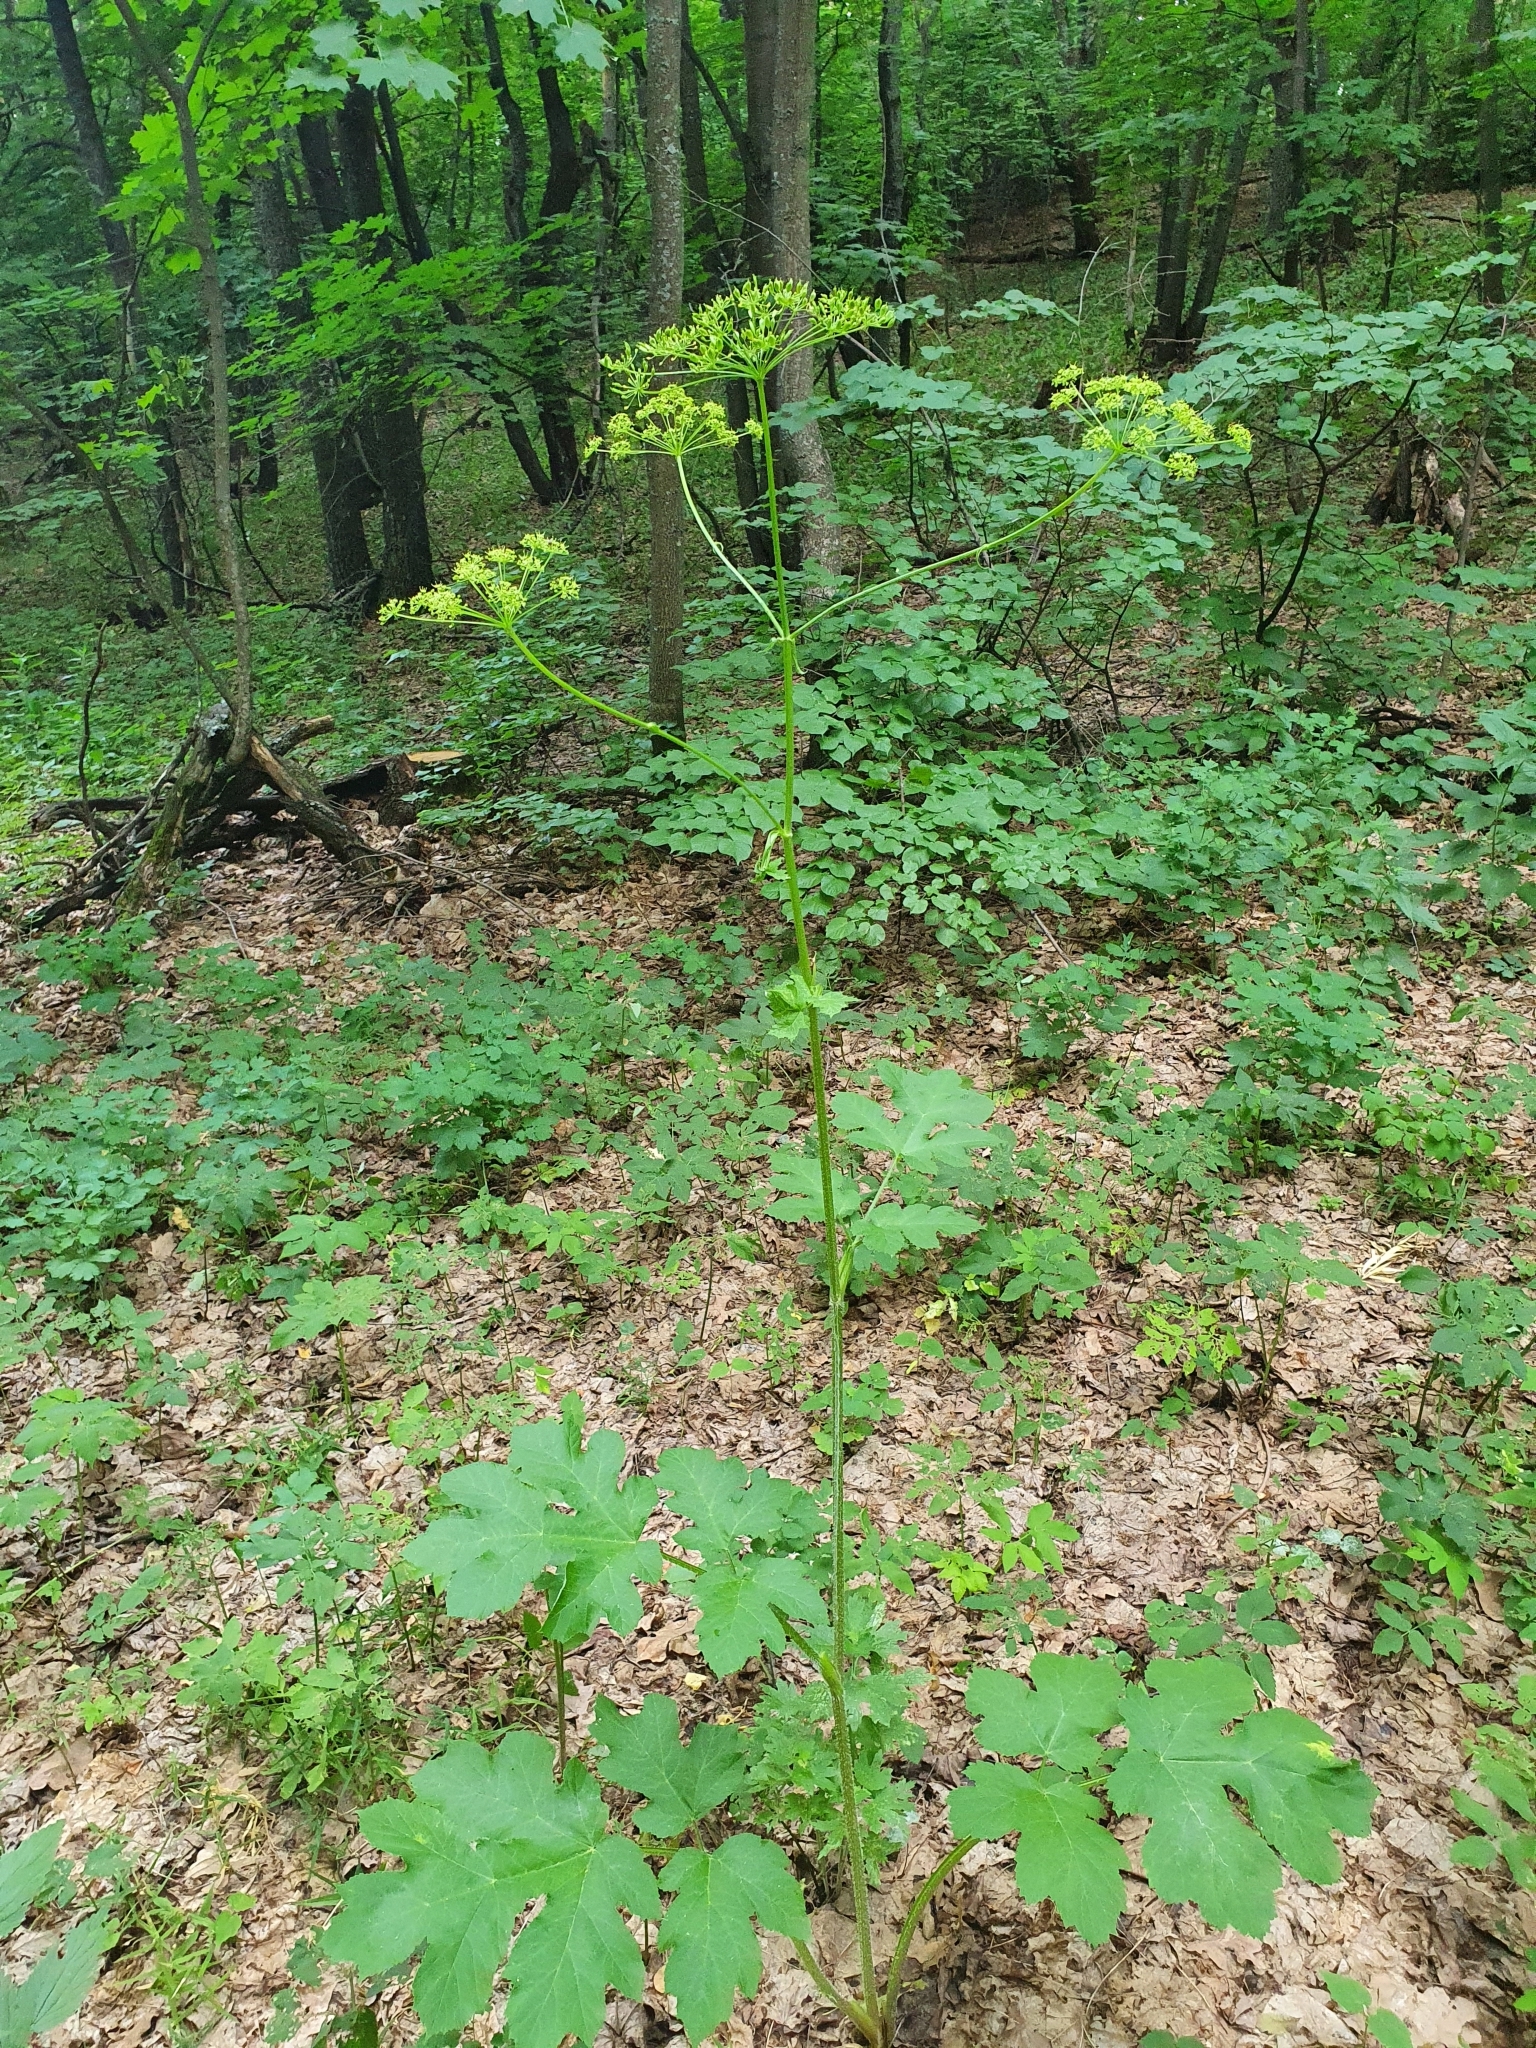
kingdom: Plantae
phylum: Tracheophyta
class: Magnoliopsida
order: Apiales
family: Apiaceae
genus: Heracleum
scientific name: Heracleum sphondylium
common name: Hogweed
